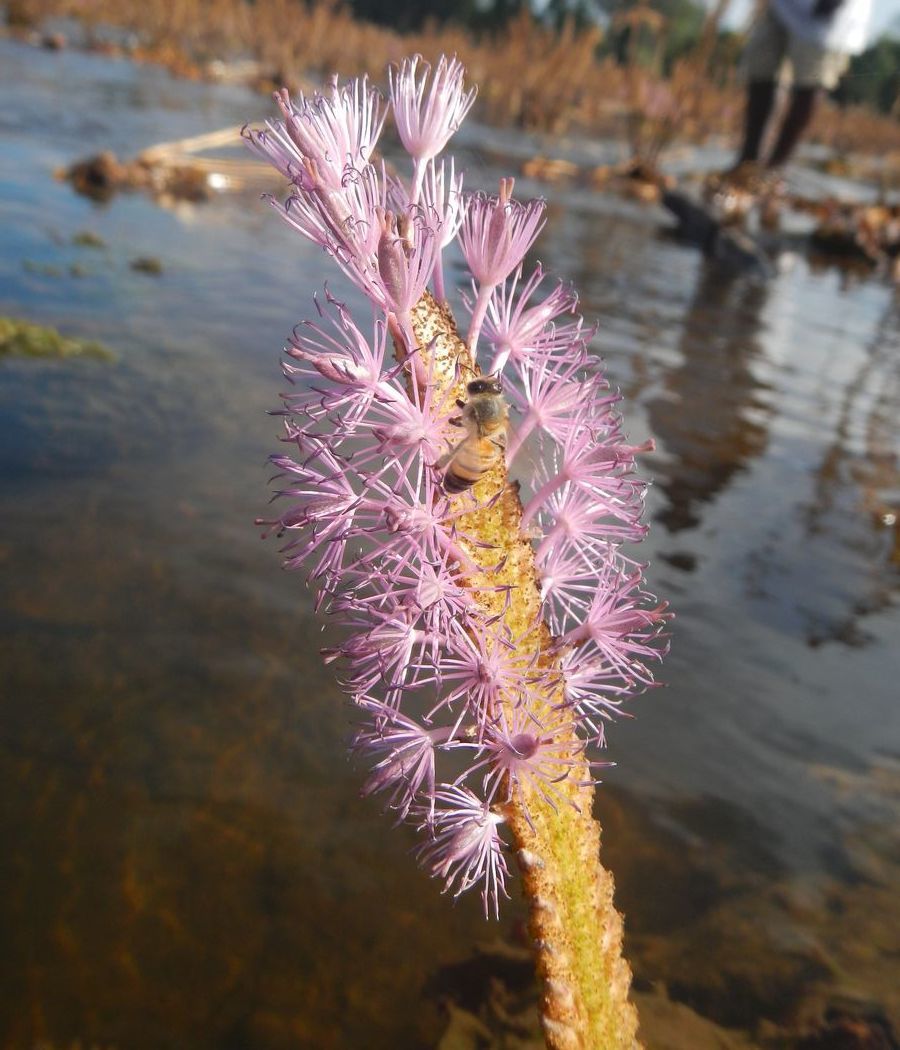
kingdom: Plantae
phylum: Tracheophyta
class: Magnoliopsida
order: Malpighiales
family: Podostemaceae
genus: Mourera
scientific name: Mourera fluviatilis
